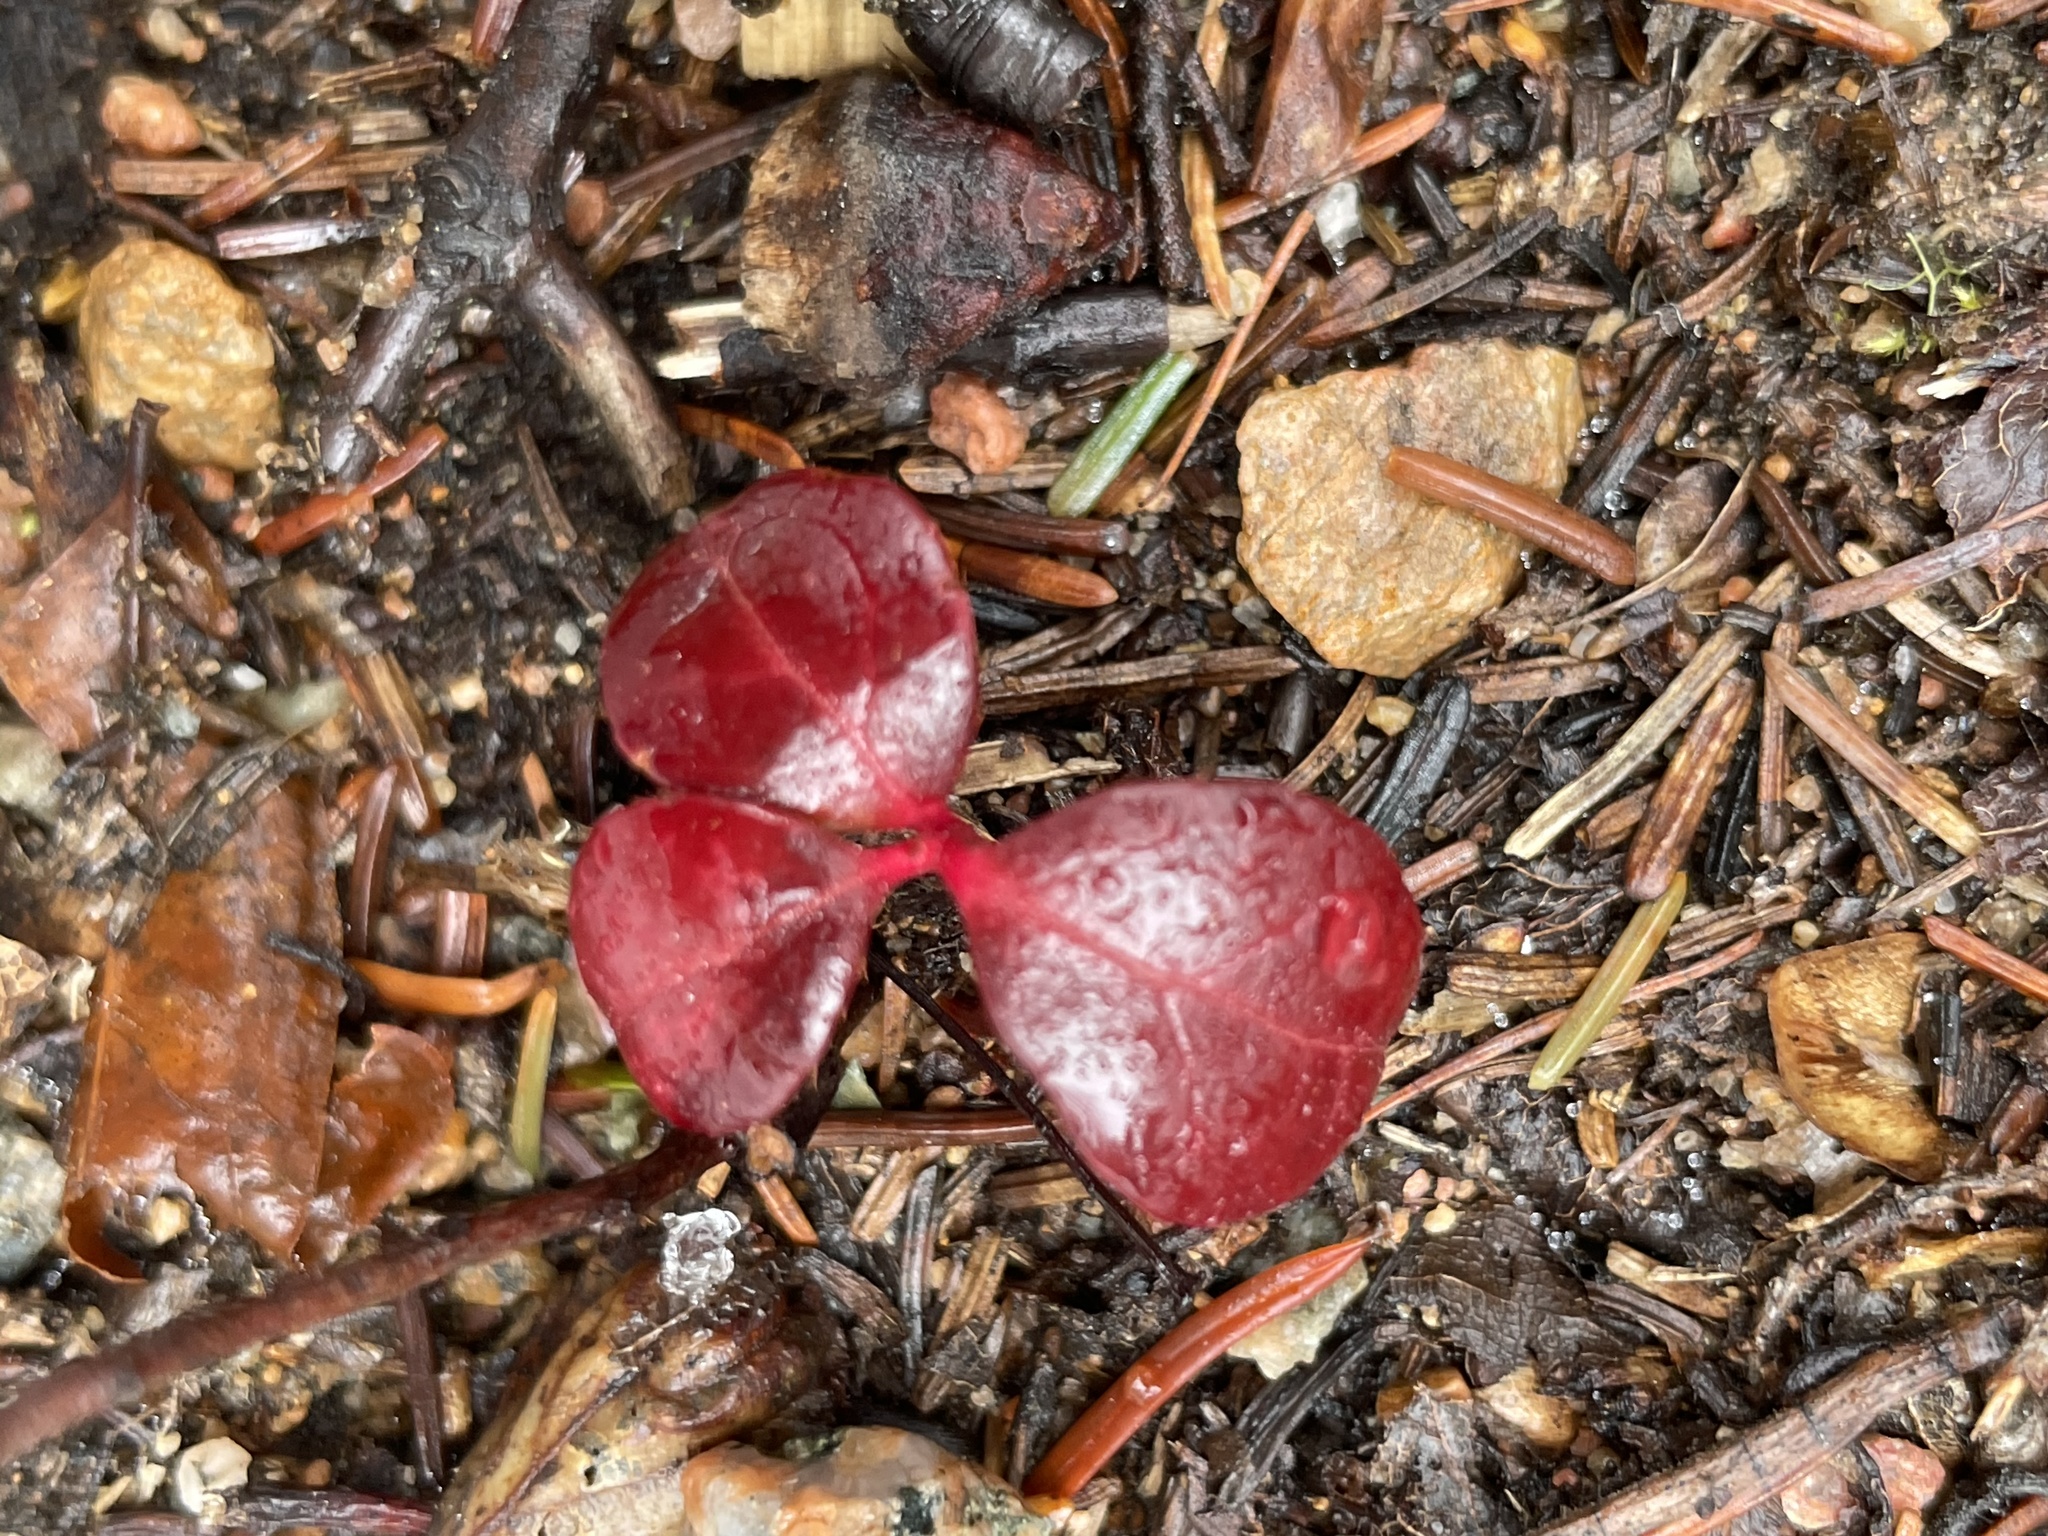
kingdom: Plantae
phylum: Tracheophyta
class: Magnoliopsida
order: Ericales
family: Ericaceae
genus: Gaultheria
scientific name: Gaultheria procumbens
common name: Checkerberry
